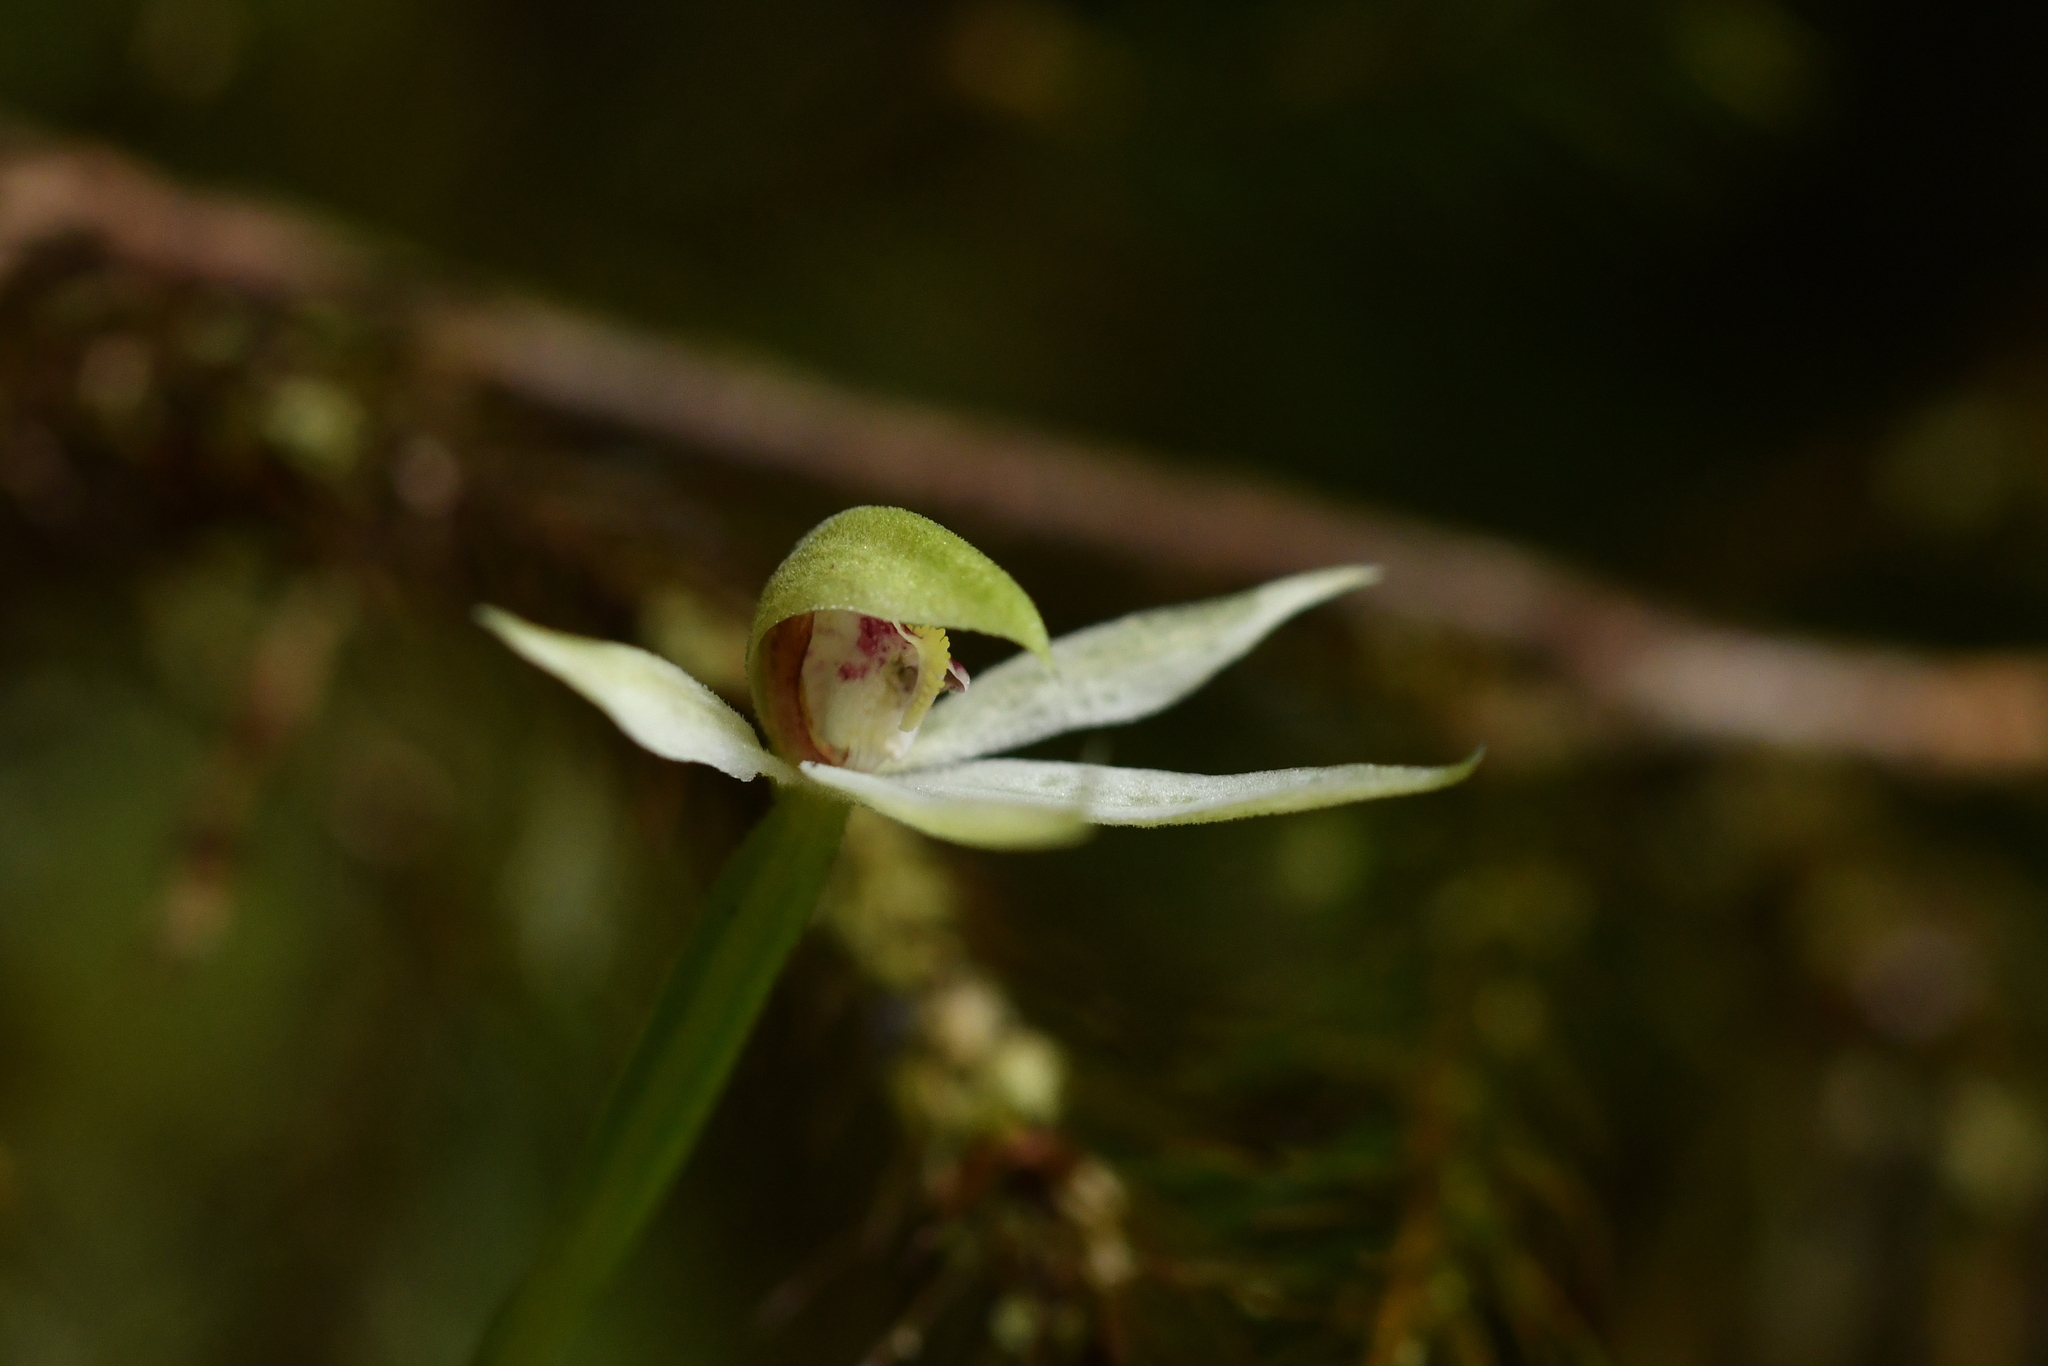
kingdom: Plantae
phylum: Tracheophyta
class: Liliopsida
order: Asparagales
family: Orchidaceae
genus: Adenochilus
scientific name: Adenochilus gracilis
